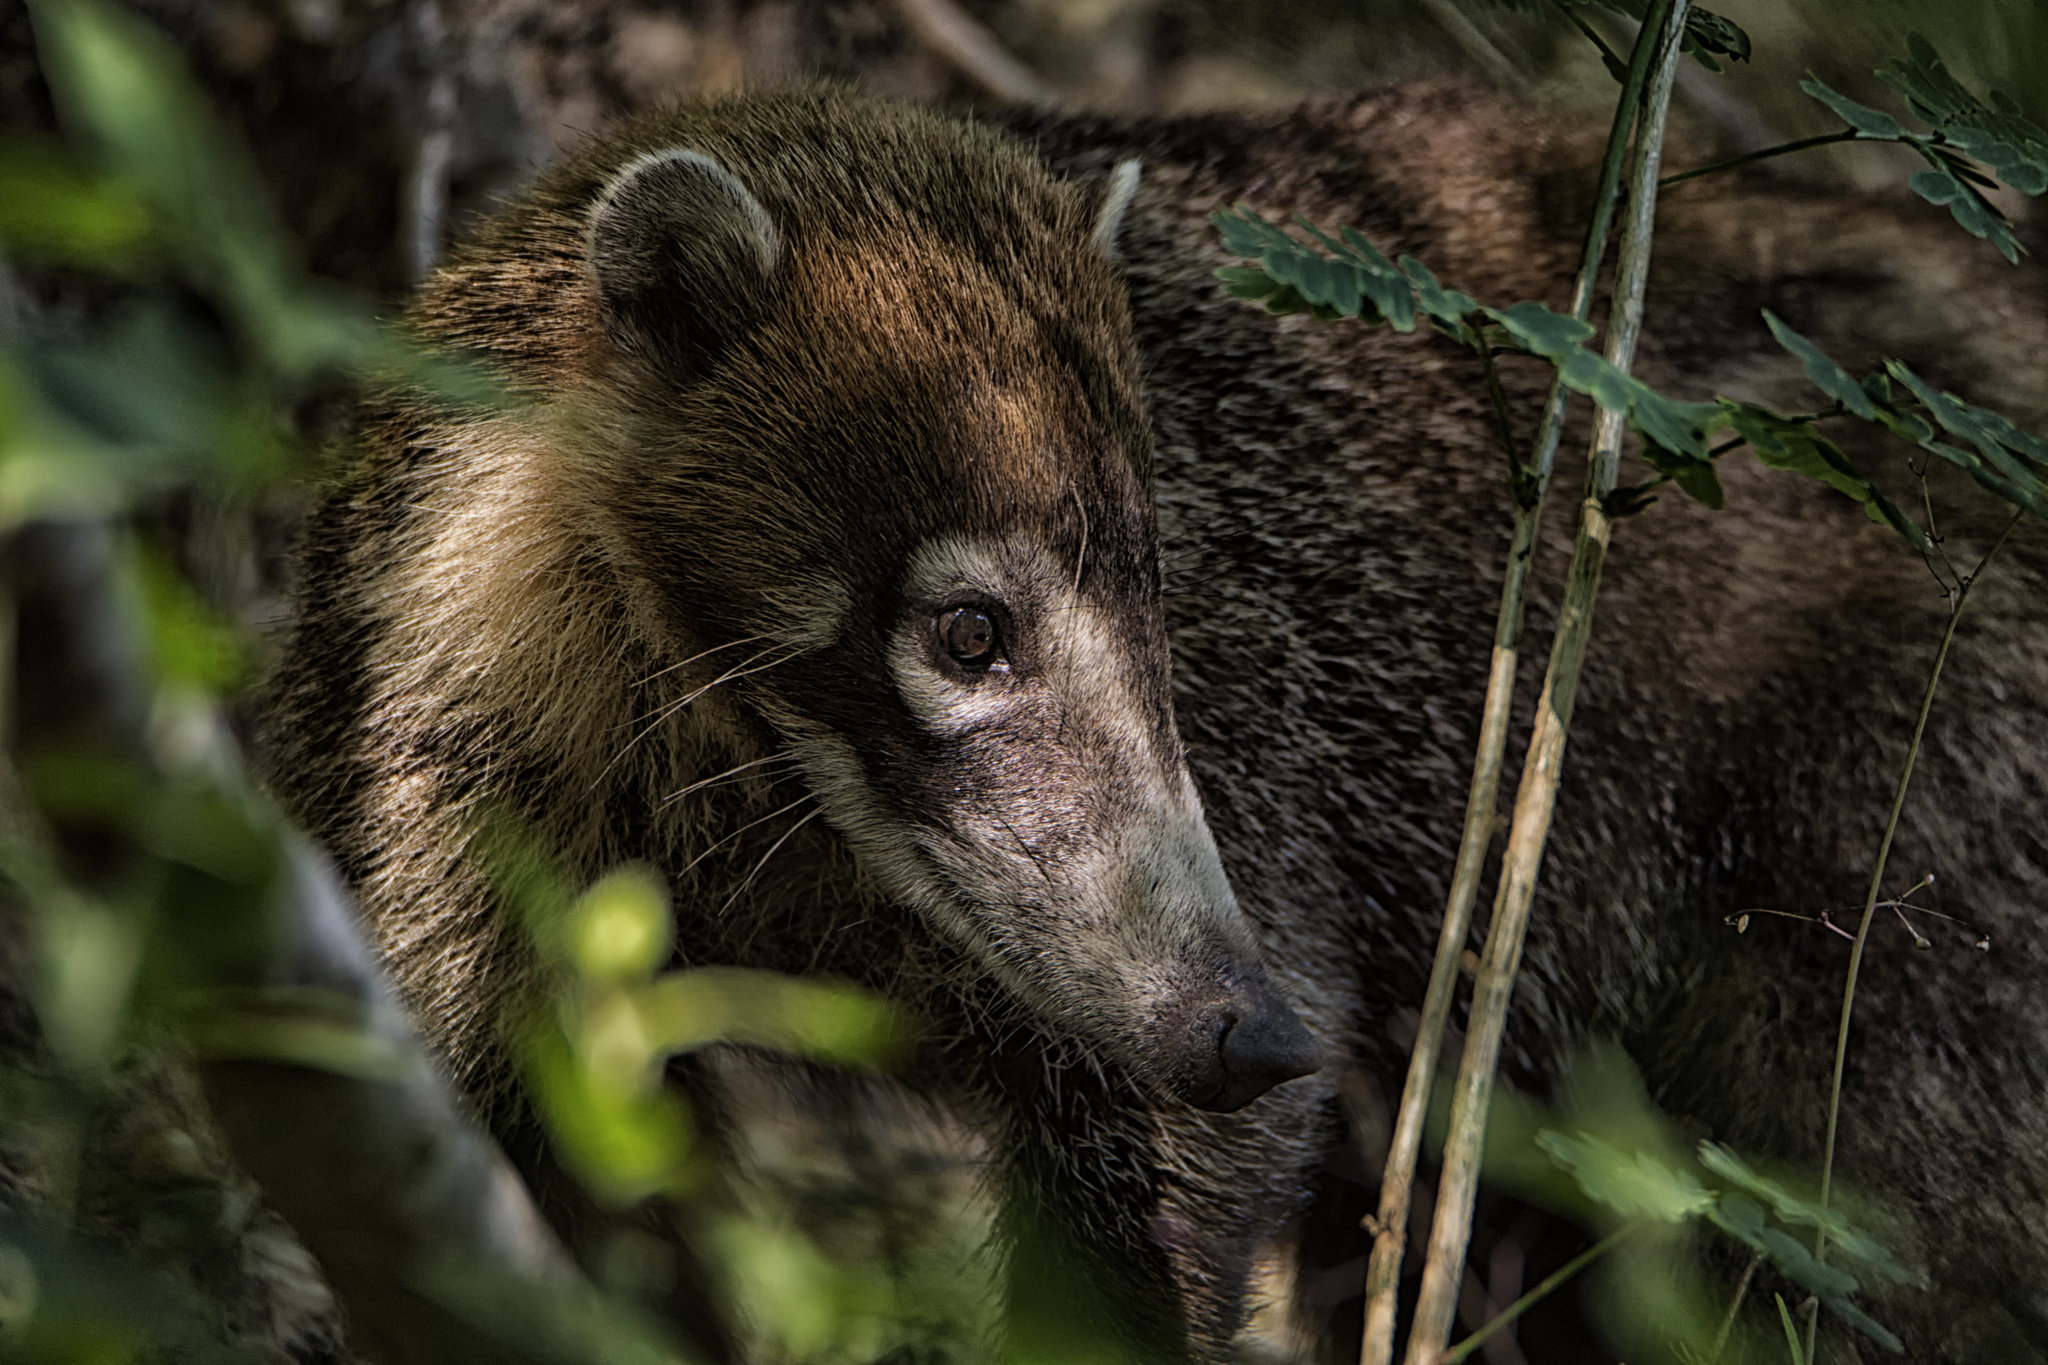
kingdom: Animalia
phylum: Chordata
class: Mammalia
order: Carnivora
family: Procyonidae
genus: Nasua
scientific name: Nasua narica
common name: White-nosed coati
